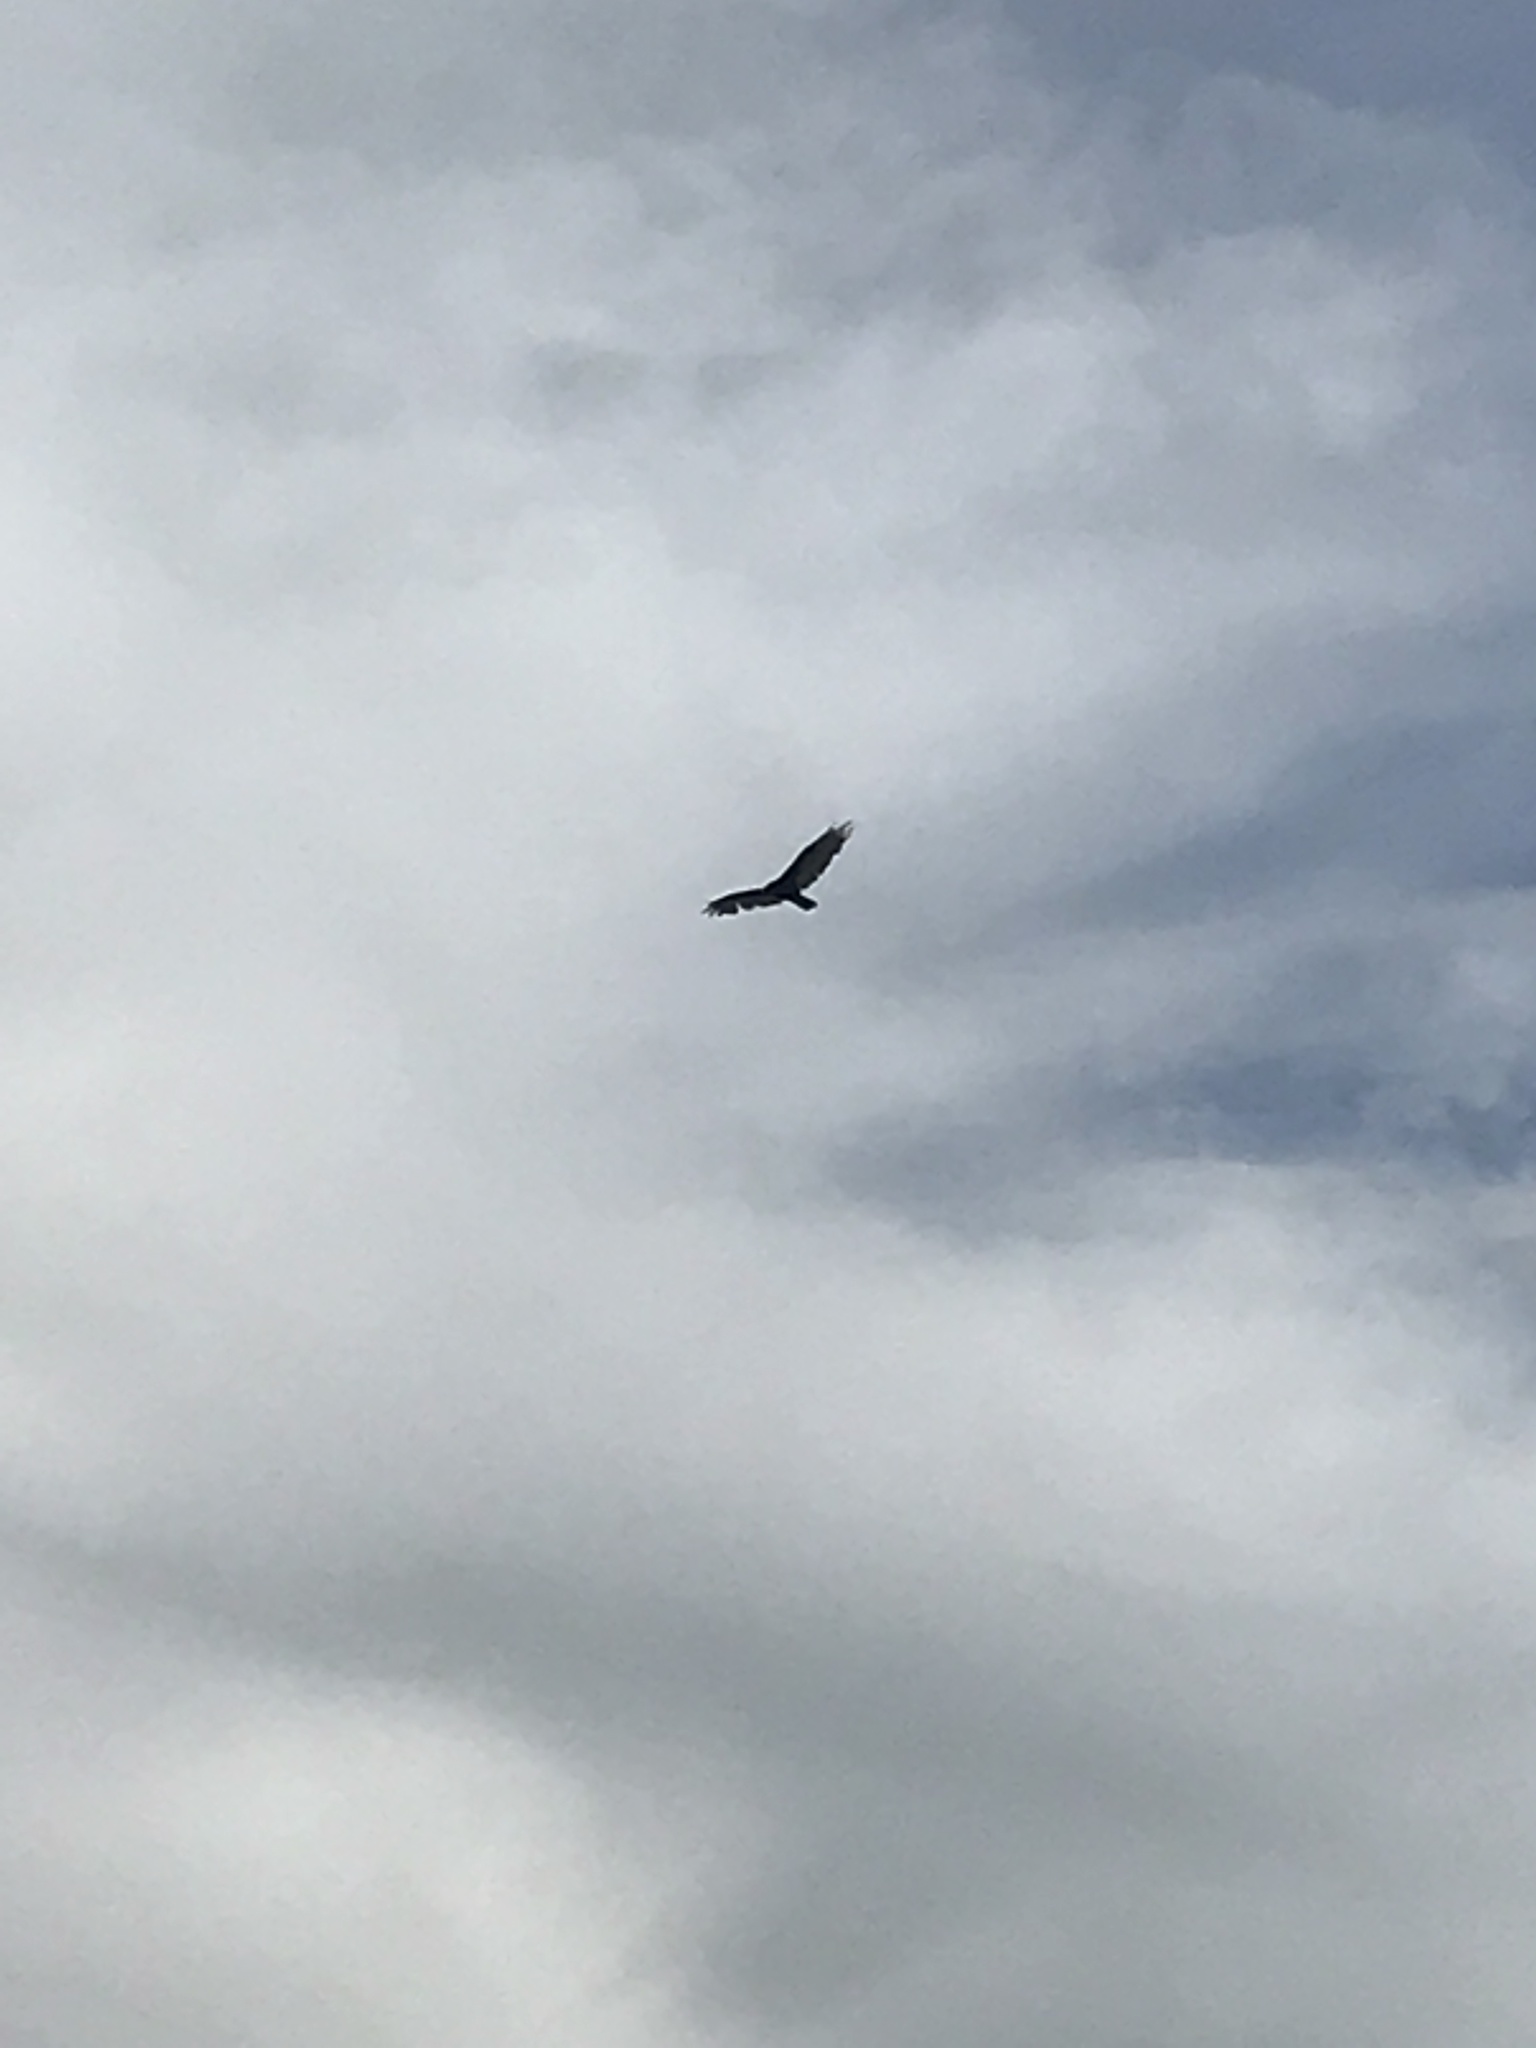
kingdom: Animalia
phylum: Chordata
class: Aves
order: Accipitriformes
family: Cathartidae
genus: Cathartes
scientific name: Cathartes aura
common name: Turkey vulture
